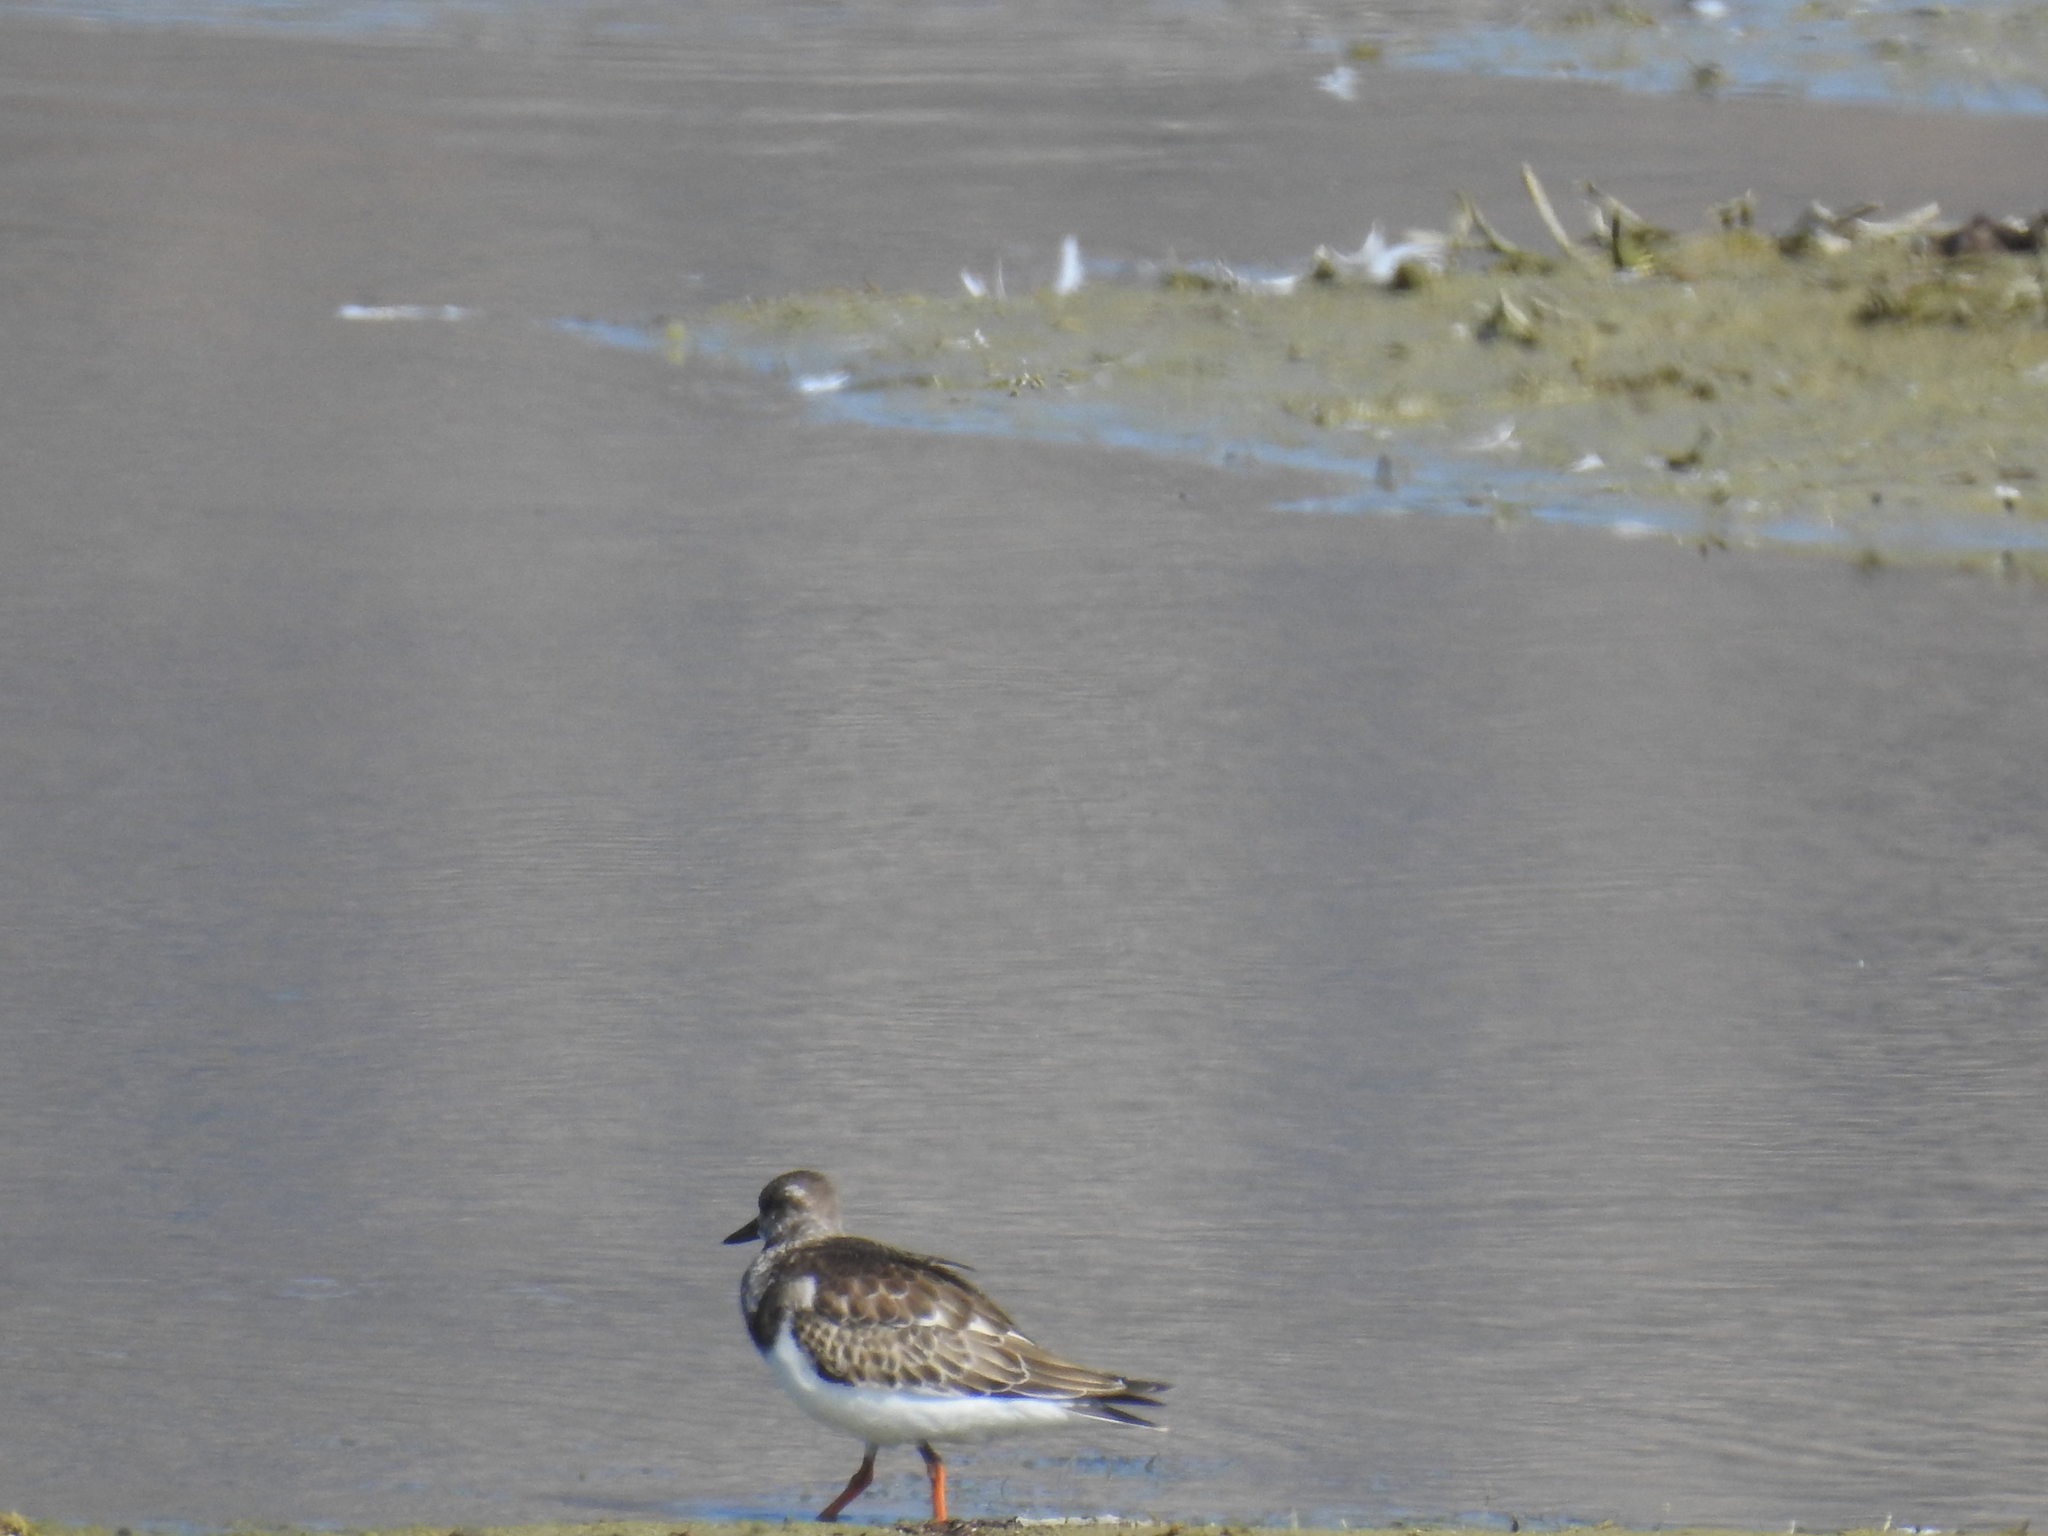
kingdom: Animalia
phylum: Chordata
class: Aves
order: Charadriiformes
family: Scolopacidae
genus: Arenaria
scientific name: Arenaria interpres
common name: Ruddy turnstone
